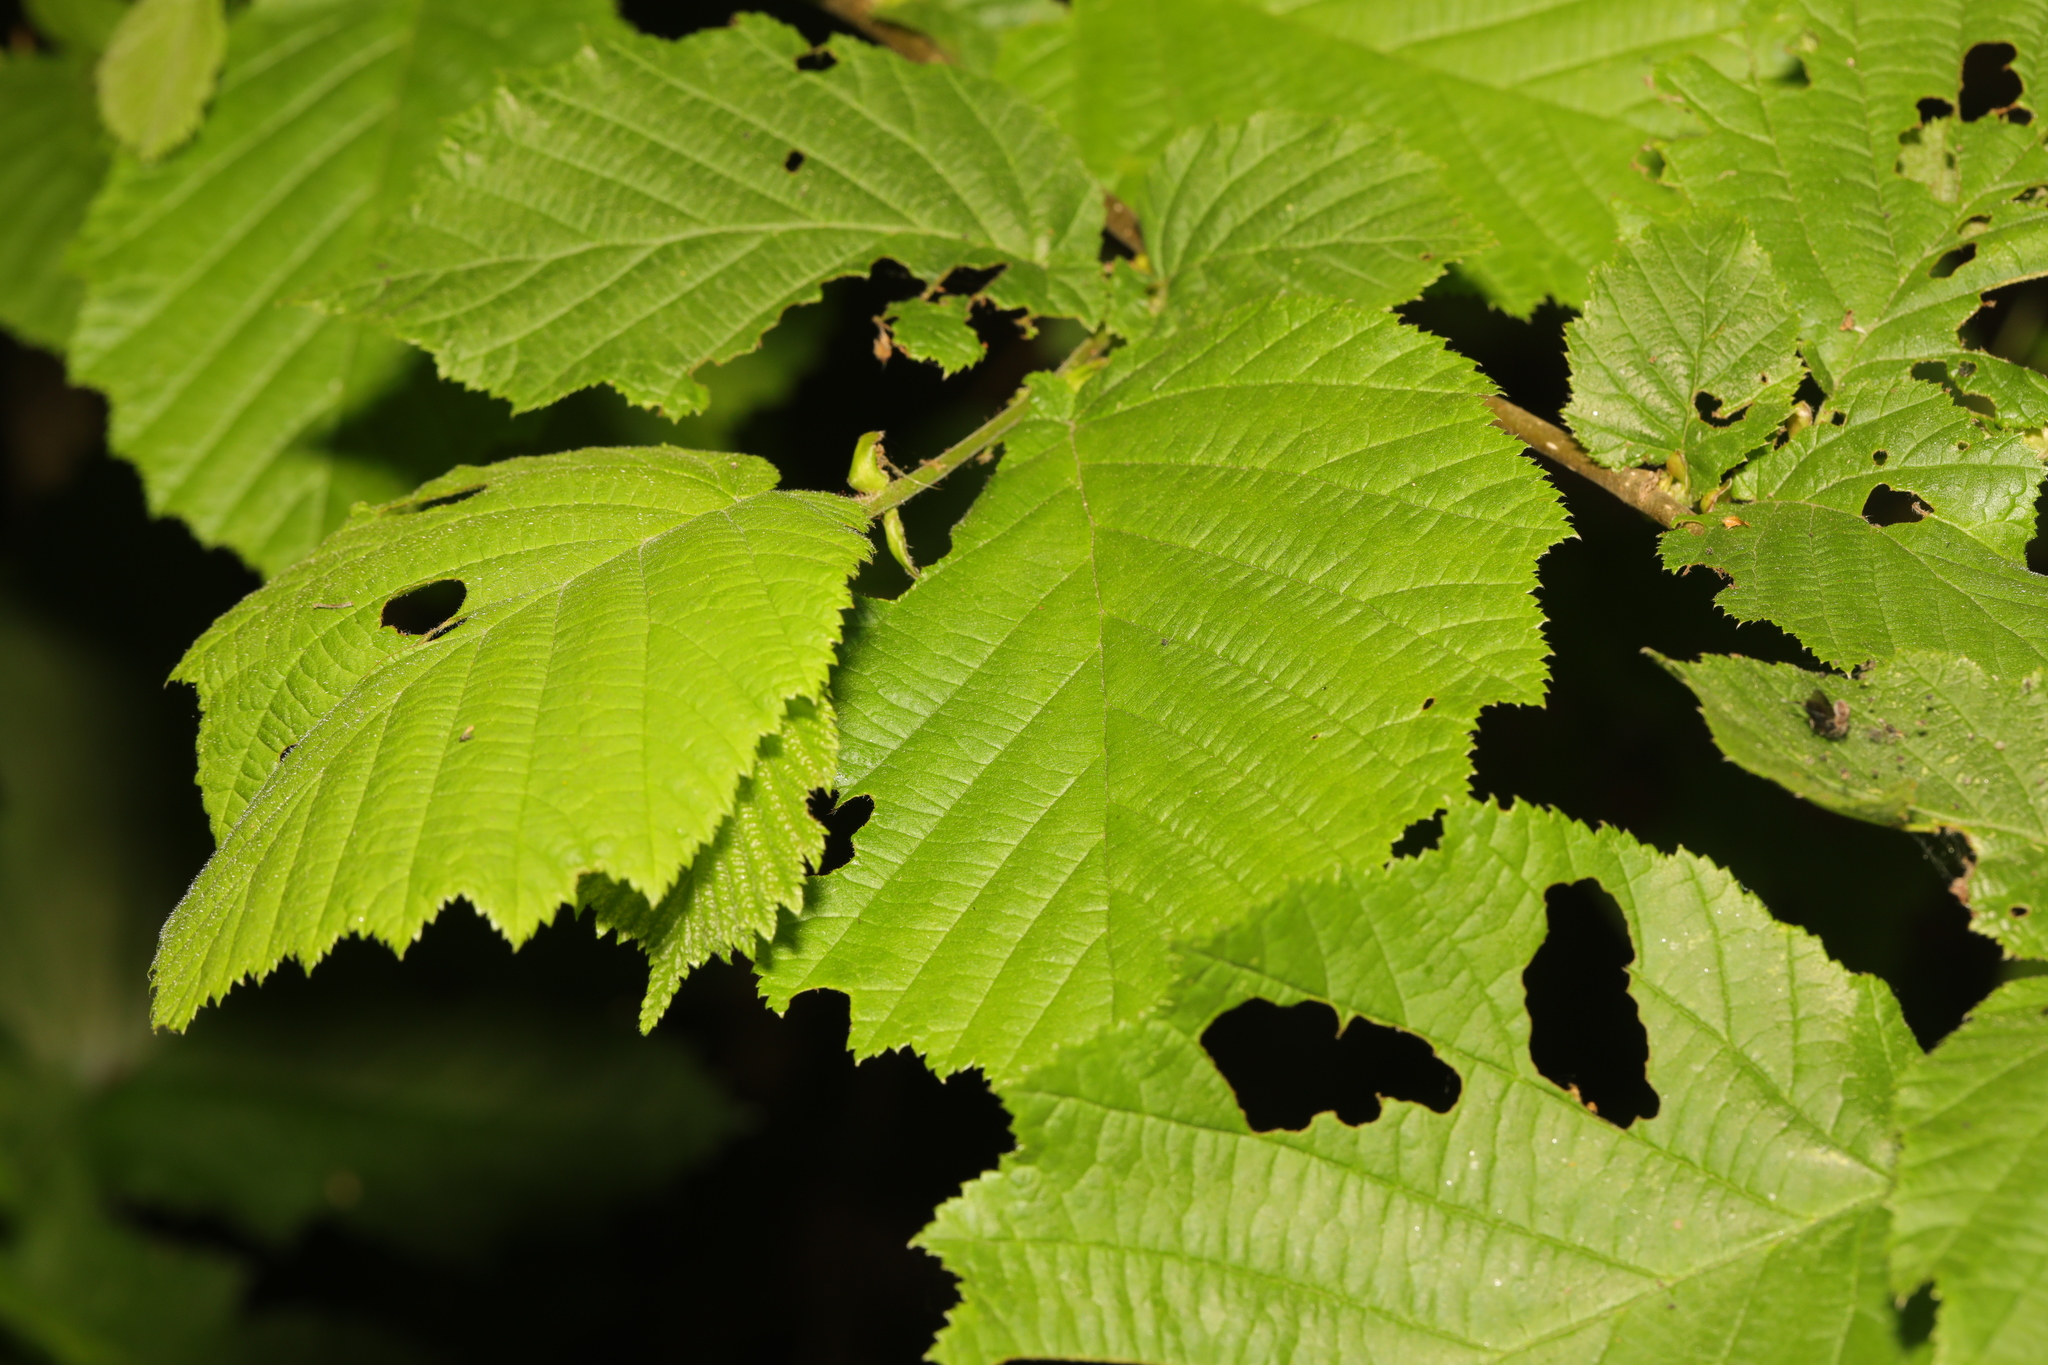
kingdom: Plantae
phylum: Tracheophyta
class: Magnoliopsida
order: Fagales
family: Betulaceae
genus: Corylus
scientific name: Corylus avellana
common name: European hazel
